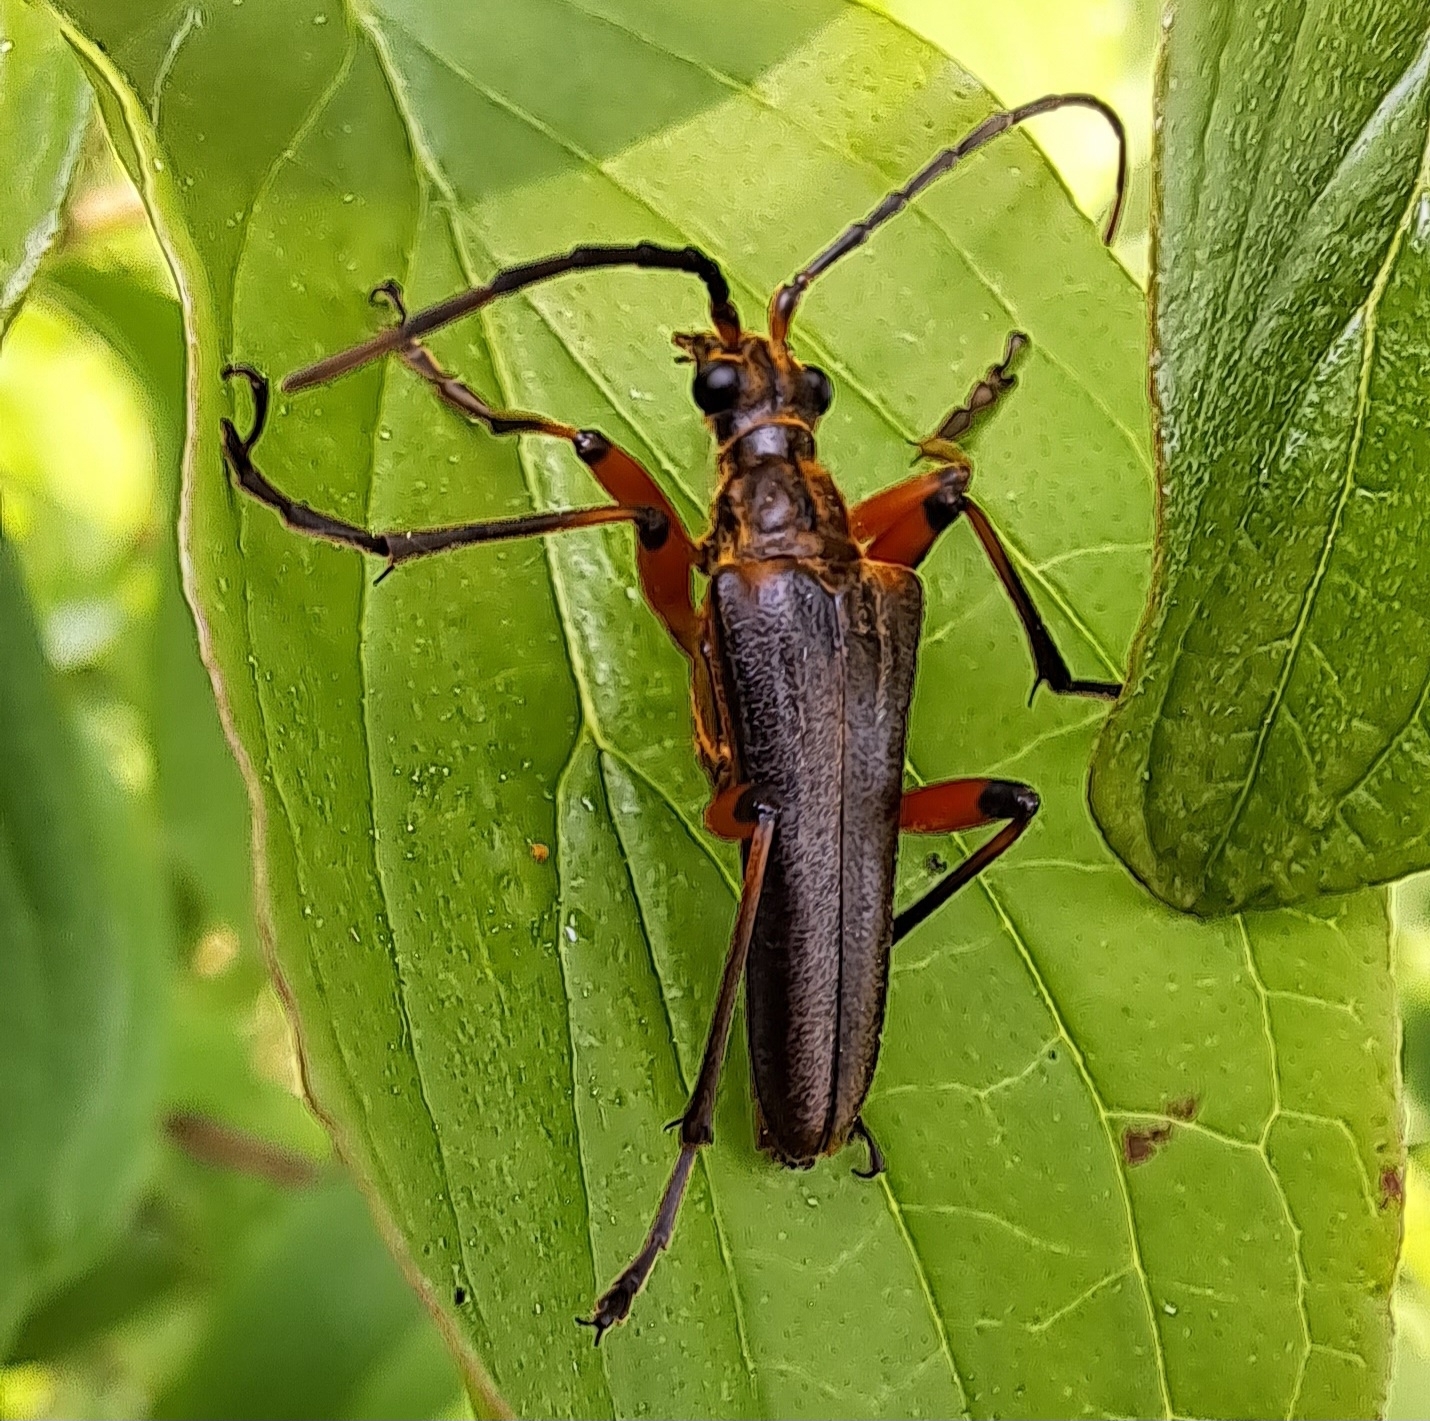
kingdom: Animalia
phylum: Arthropoda
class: Insecta
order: Coleoptera
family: Cerambycidae
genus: Stenocorus
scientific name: Stenocorus meridianus
